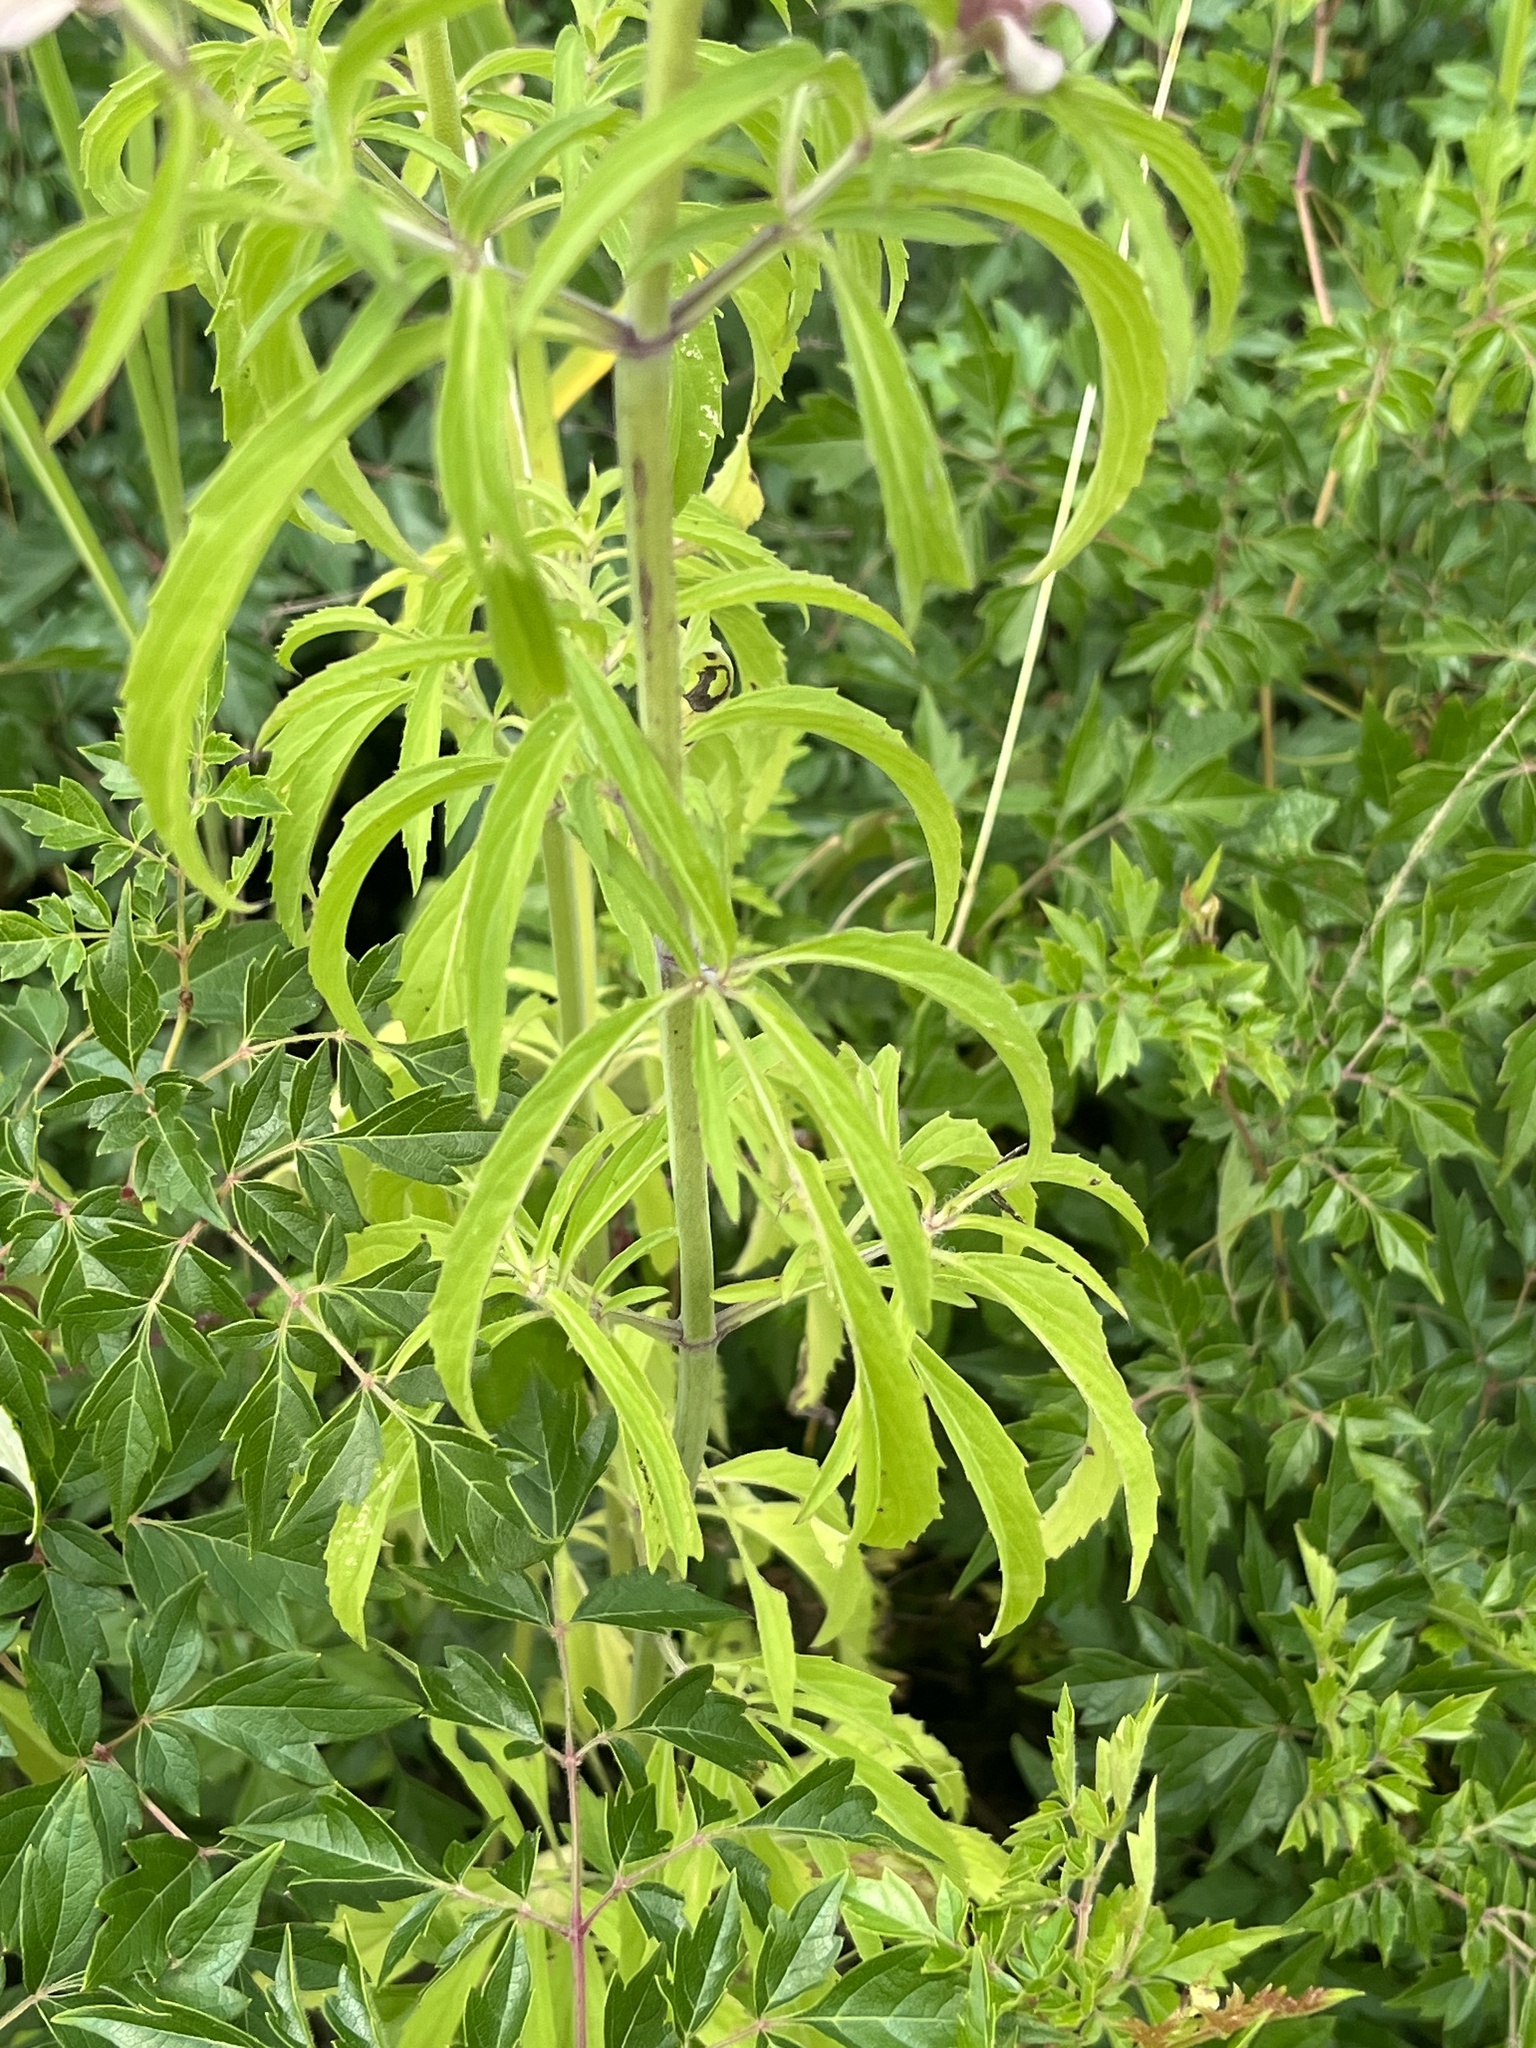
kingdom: Plantae
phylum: Tracheophyta
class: Magnoliopsida
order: Lamiales
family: Lamiaceae
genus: Monarda
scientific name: Monarda citriodora
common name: Lemon beebalm
